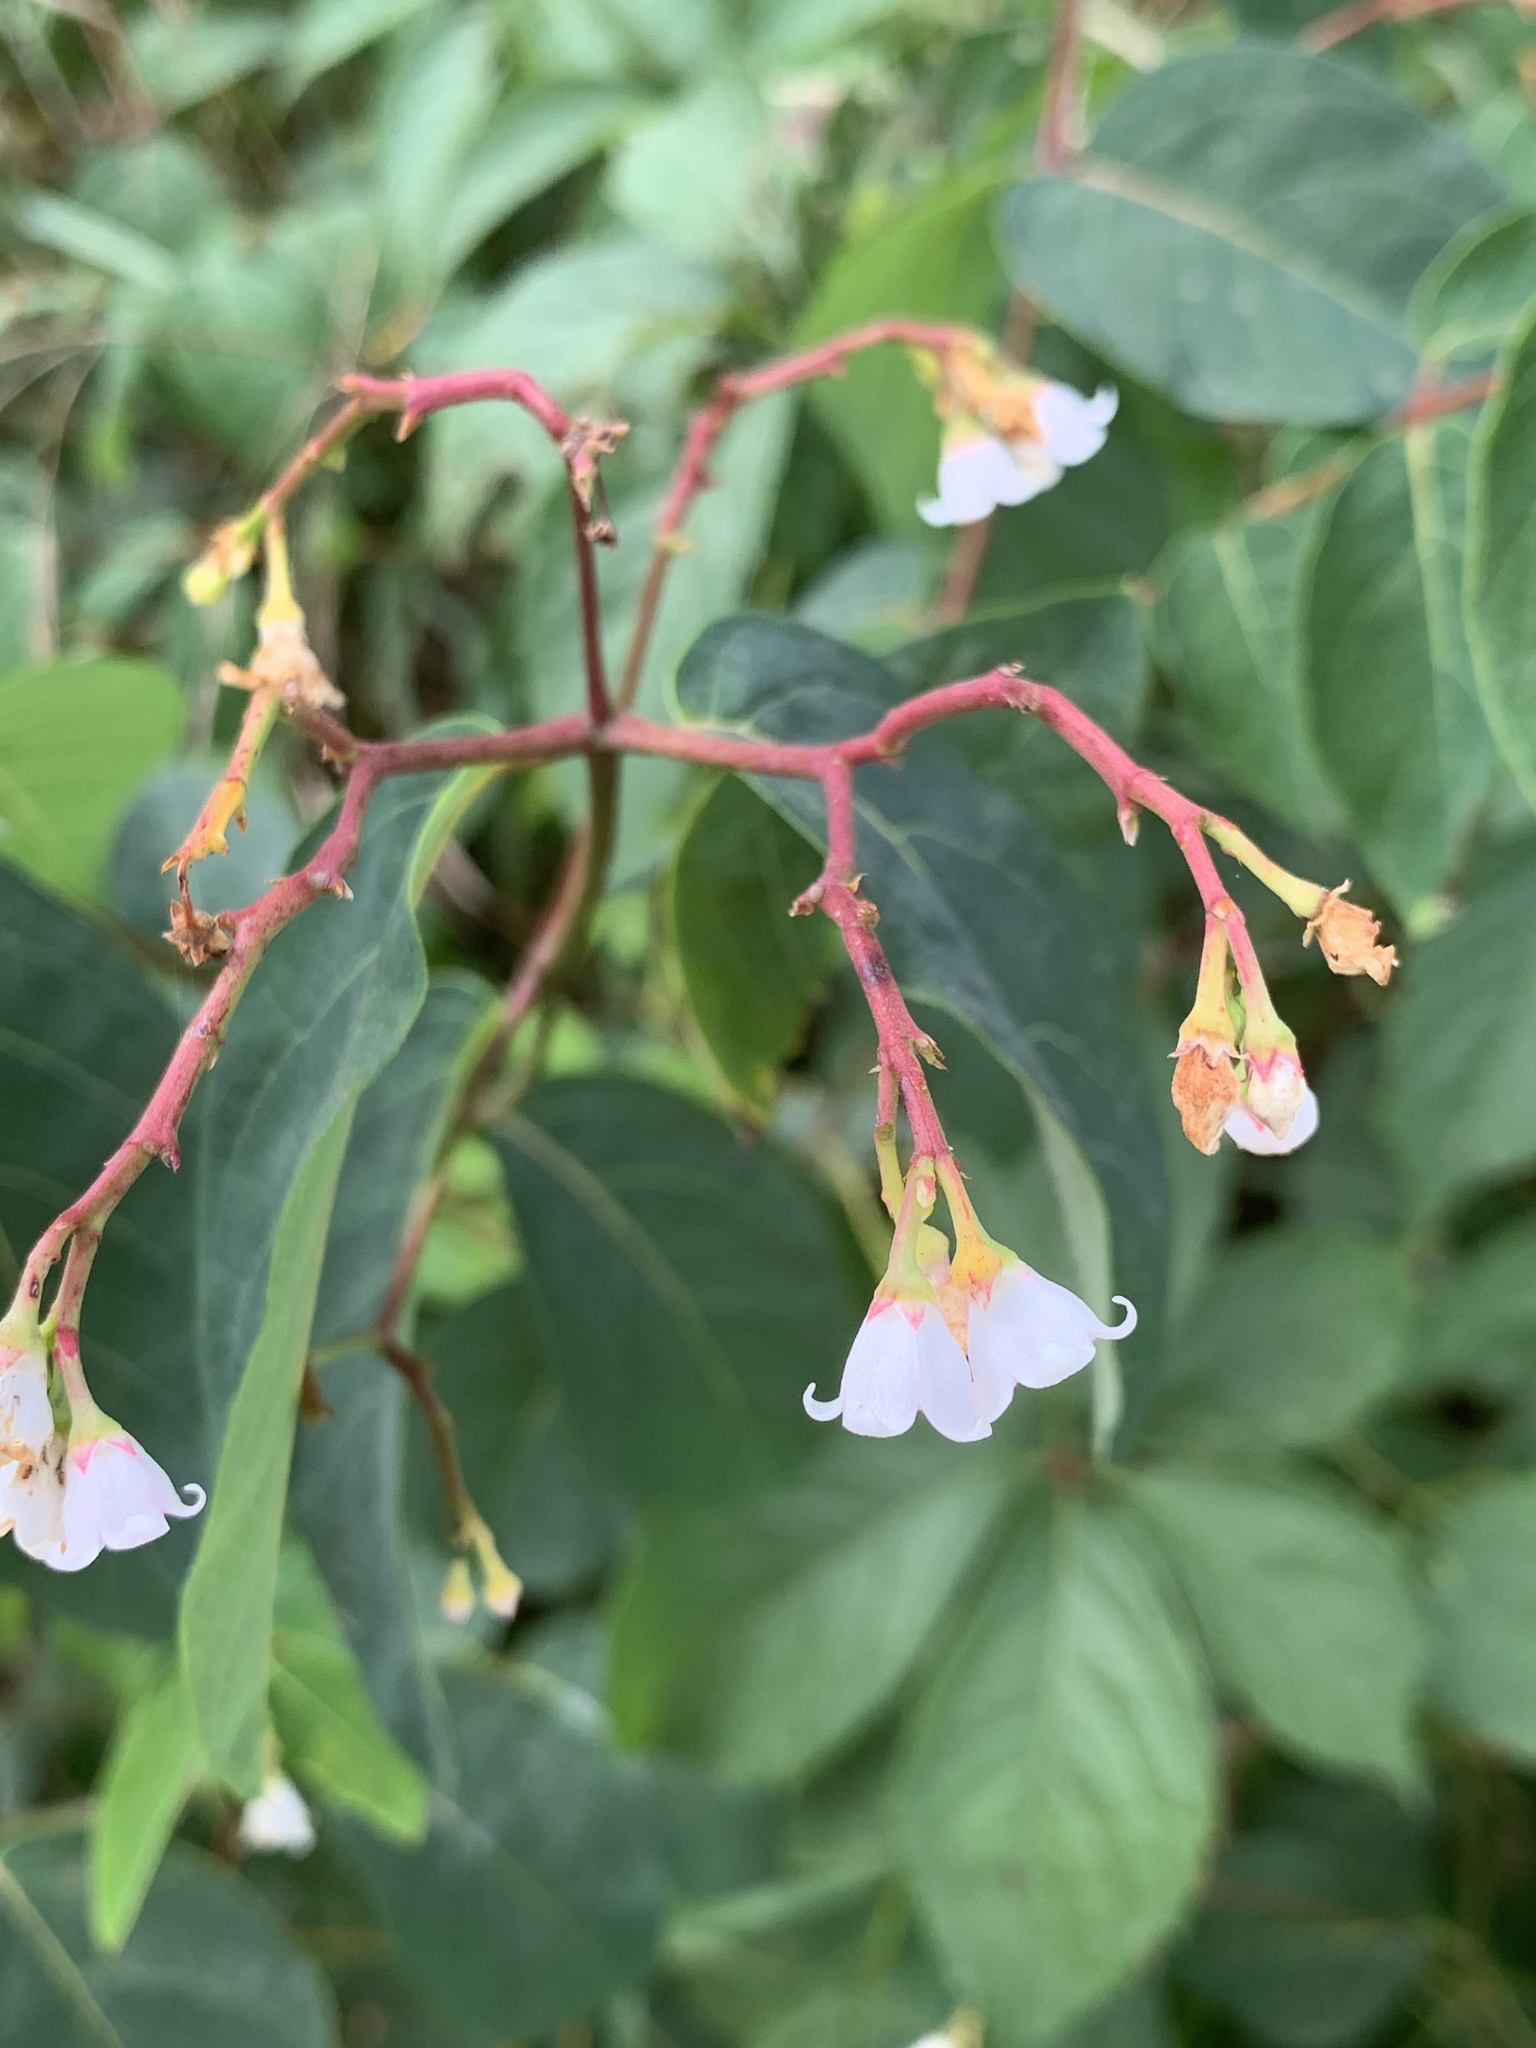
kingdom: Plantae
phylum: Tracheophyta
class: Magnoliopsida
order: Gentianales
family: Apocynaceae
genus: Apocynum
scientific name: Apocynum androsaemifolium
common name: Spreading dogbane
